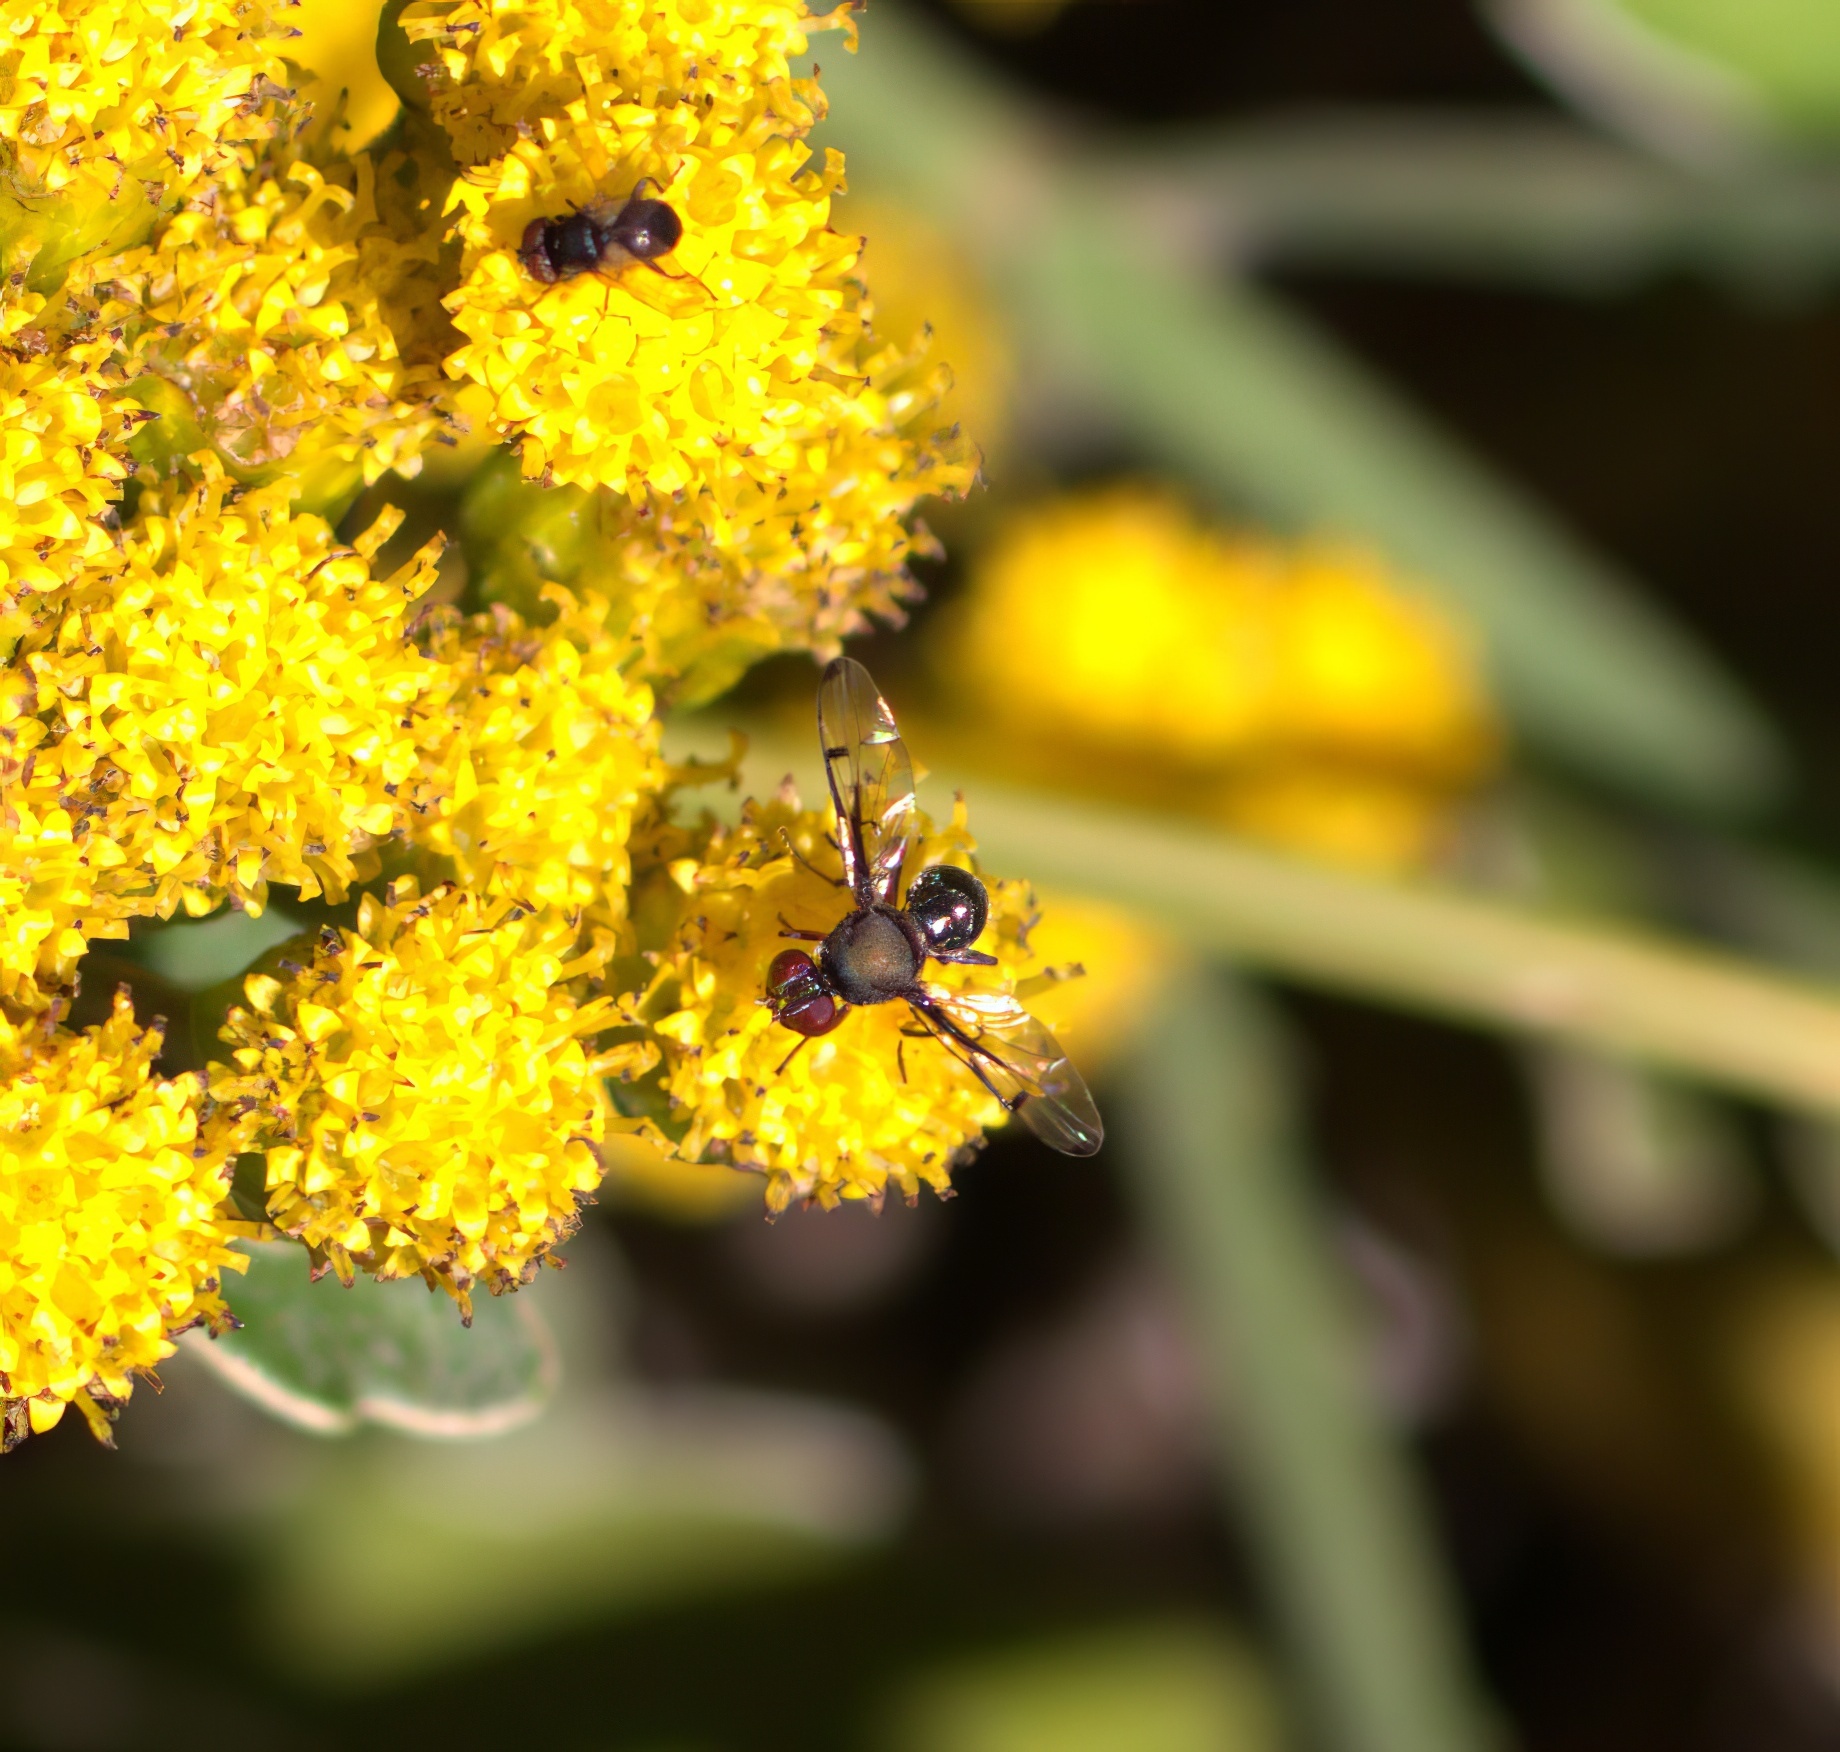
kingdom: Animalia
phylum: Arthropoda
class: Insecta
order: Diptera
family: Platystomatidae
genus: Pogonortalis
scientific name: Pogonortalis doclea
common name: Boatman fly
